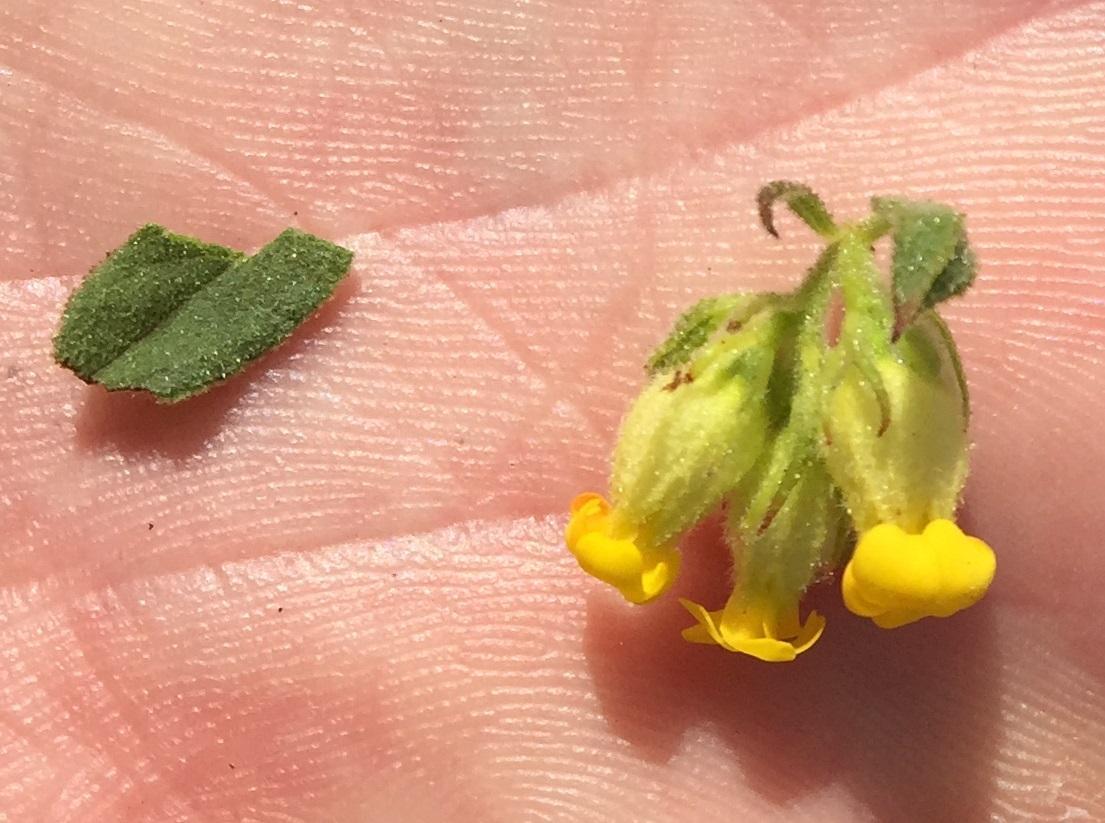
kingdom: Plantae
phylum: Tracheophyta
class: Magnoliopsida
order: Malvales
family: Malvaceae
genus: Hermannia
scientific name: Hermannia salviifolia
